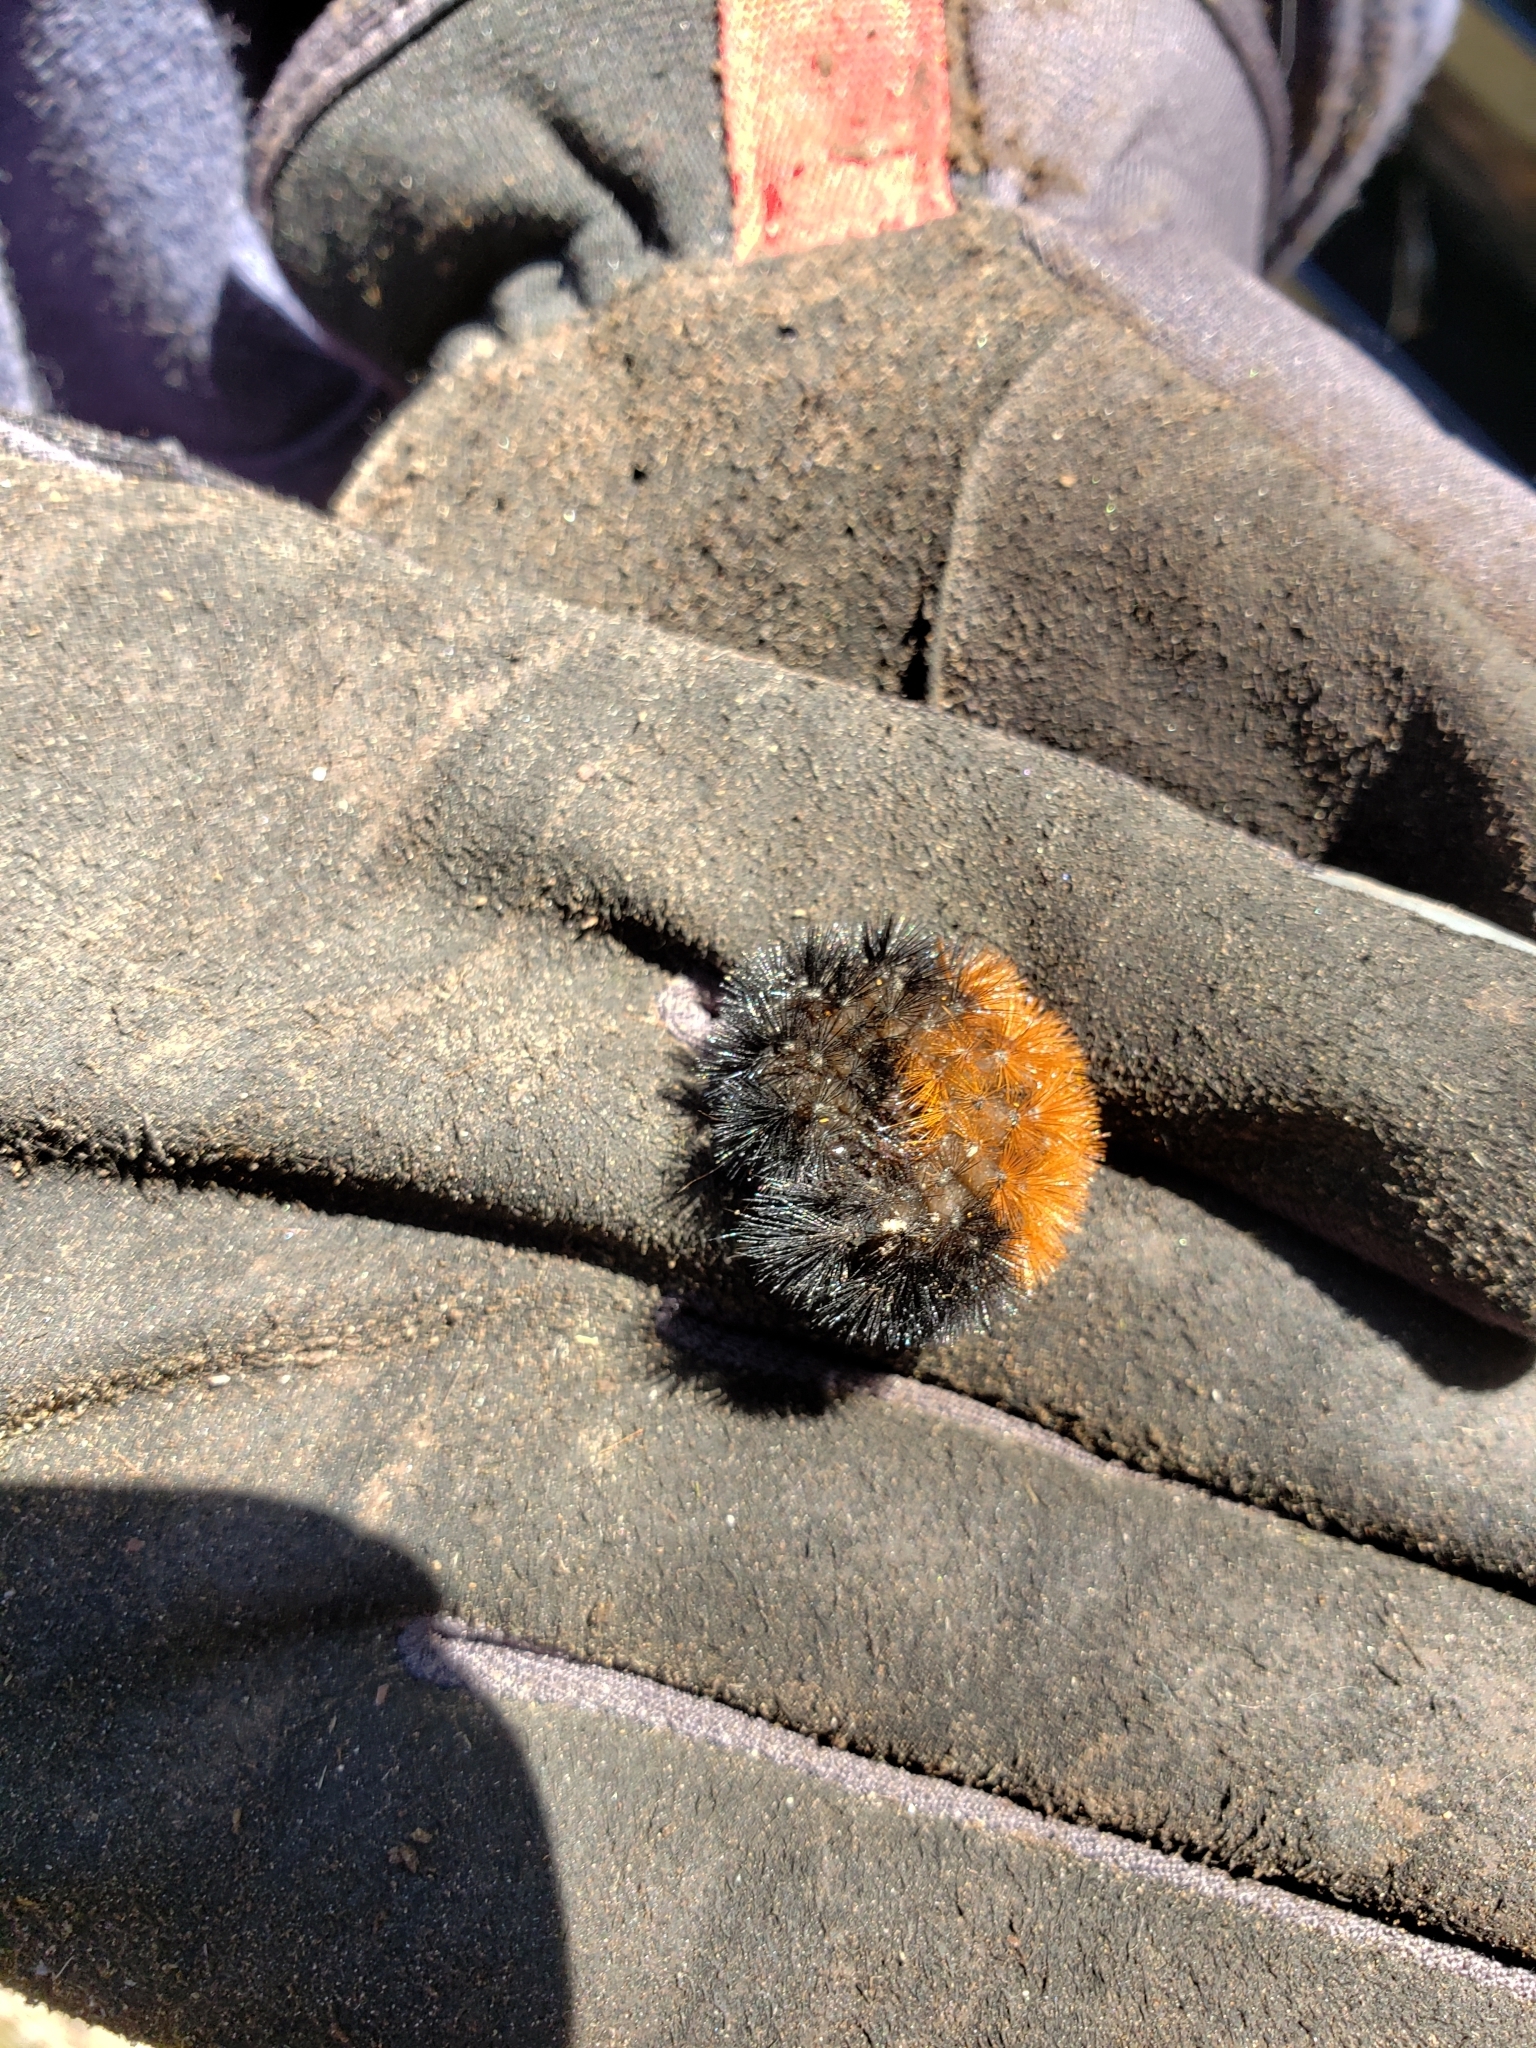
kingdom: Animalia
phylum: Arthropoda
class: Insecta
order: Lepidoptera
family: Erebidae
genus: Pyrrharctia
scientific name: Pyrrharctia isabella
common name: Isabella tiger moth
